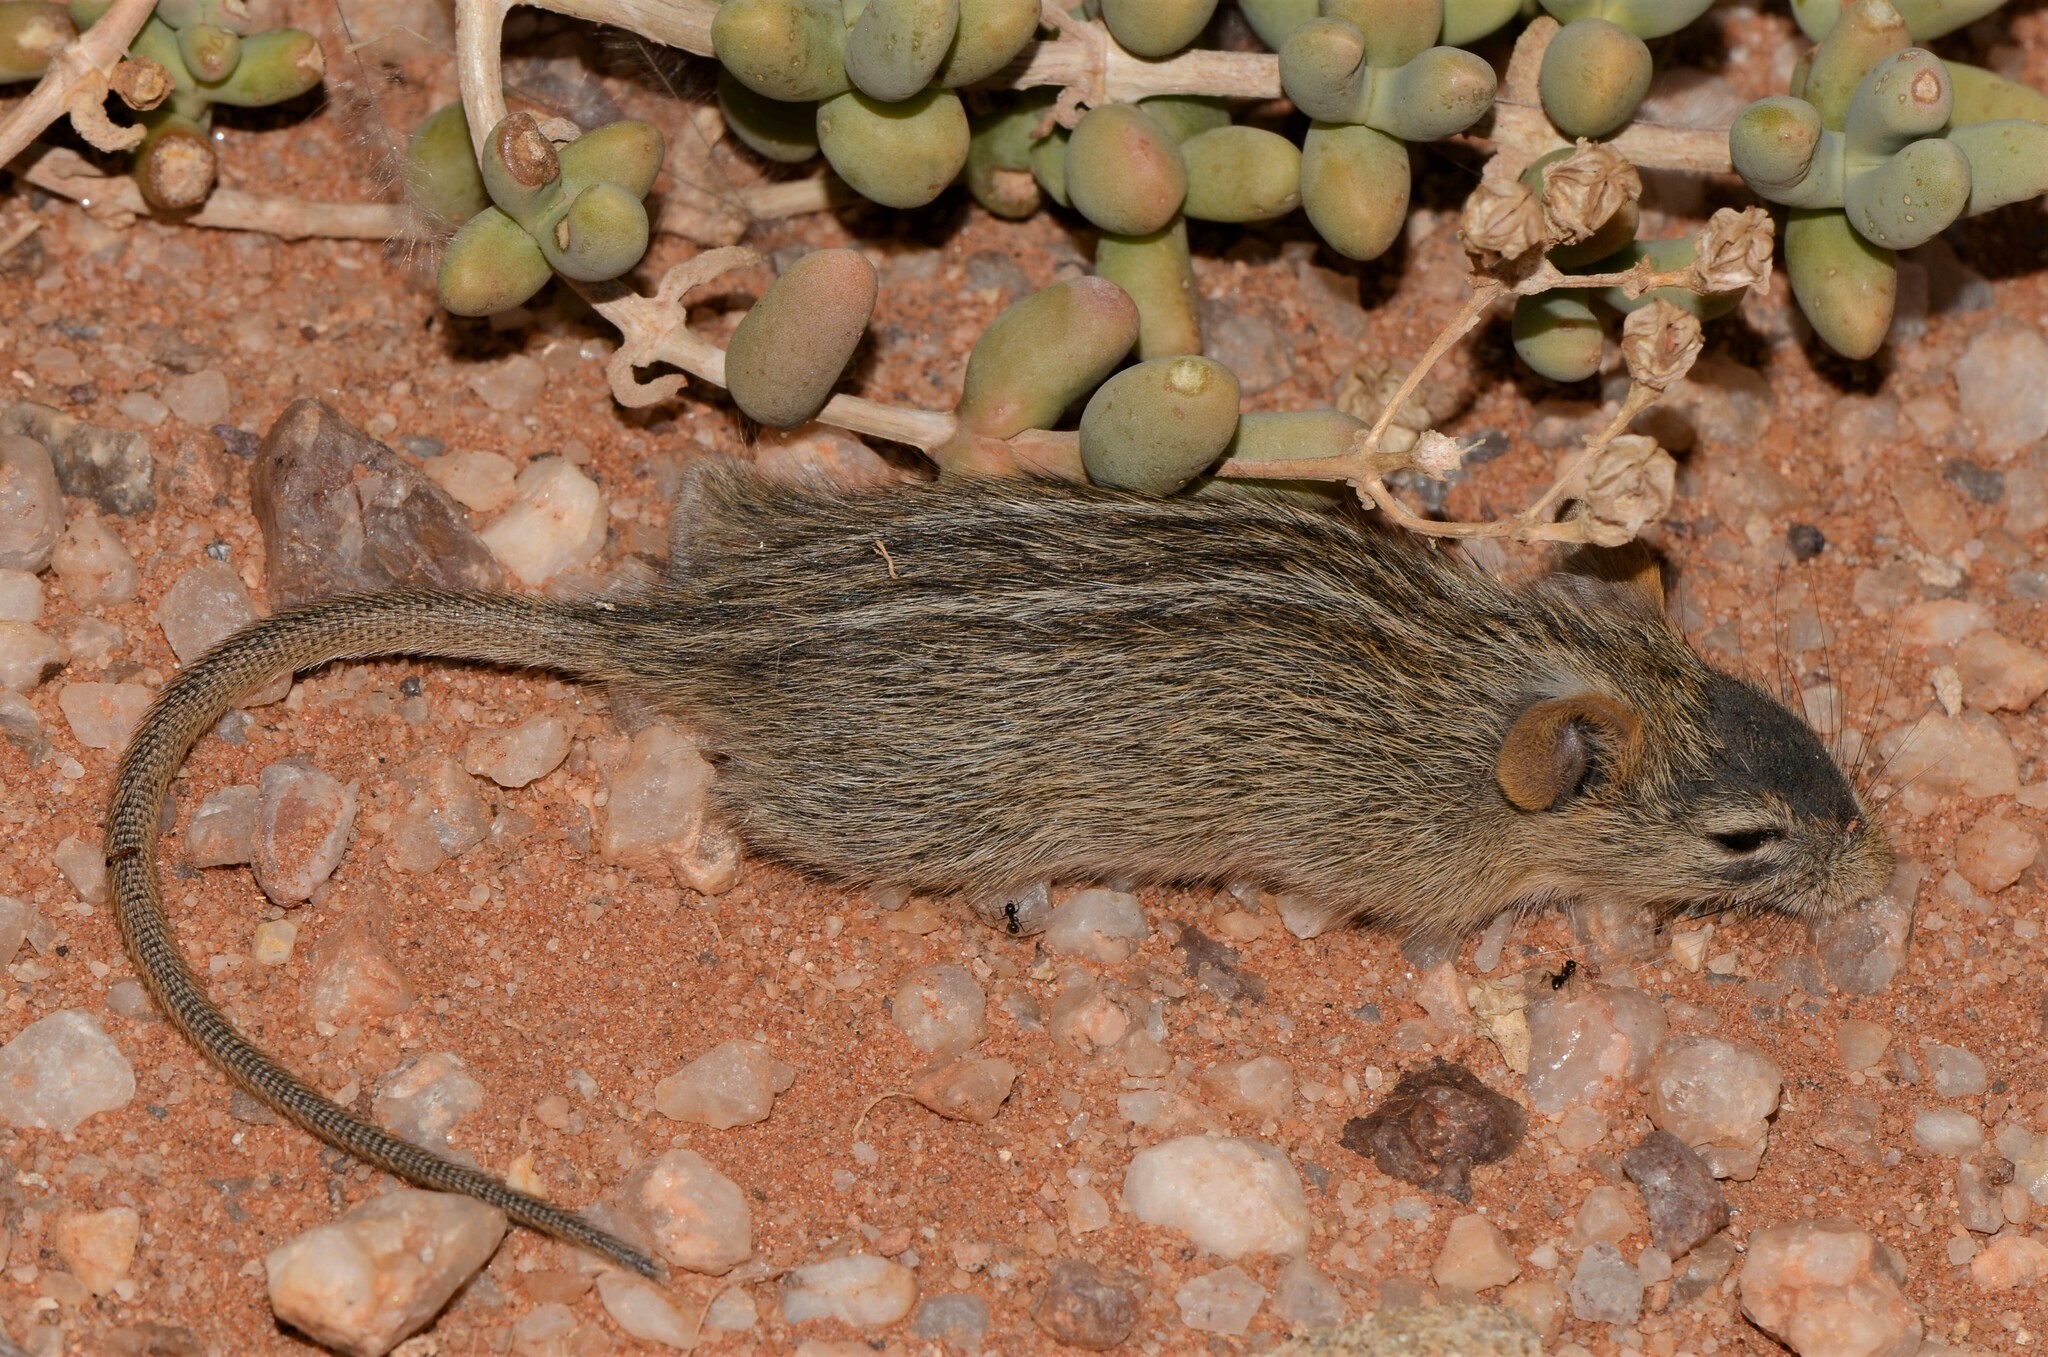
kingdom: Animalia
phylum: Chordata
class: Mammalia
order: Rodentia
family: Muridae
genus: Rhabdomys
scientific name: Rhabdomys pumilio
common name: Xeric four-striped grass rat
